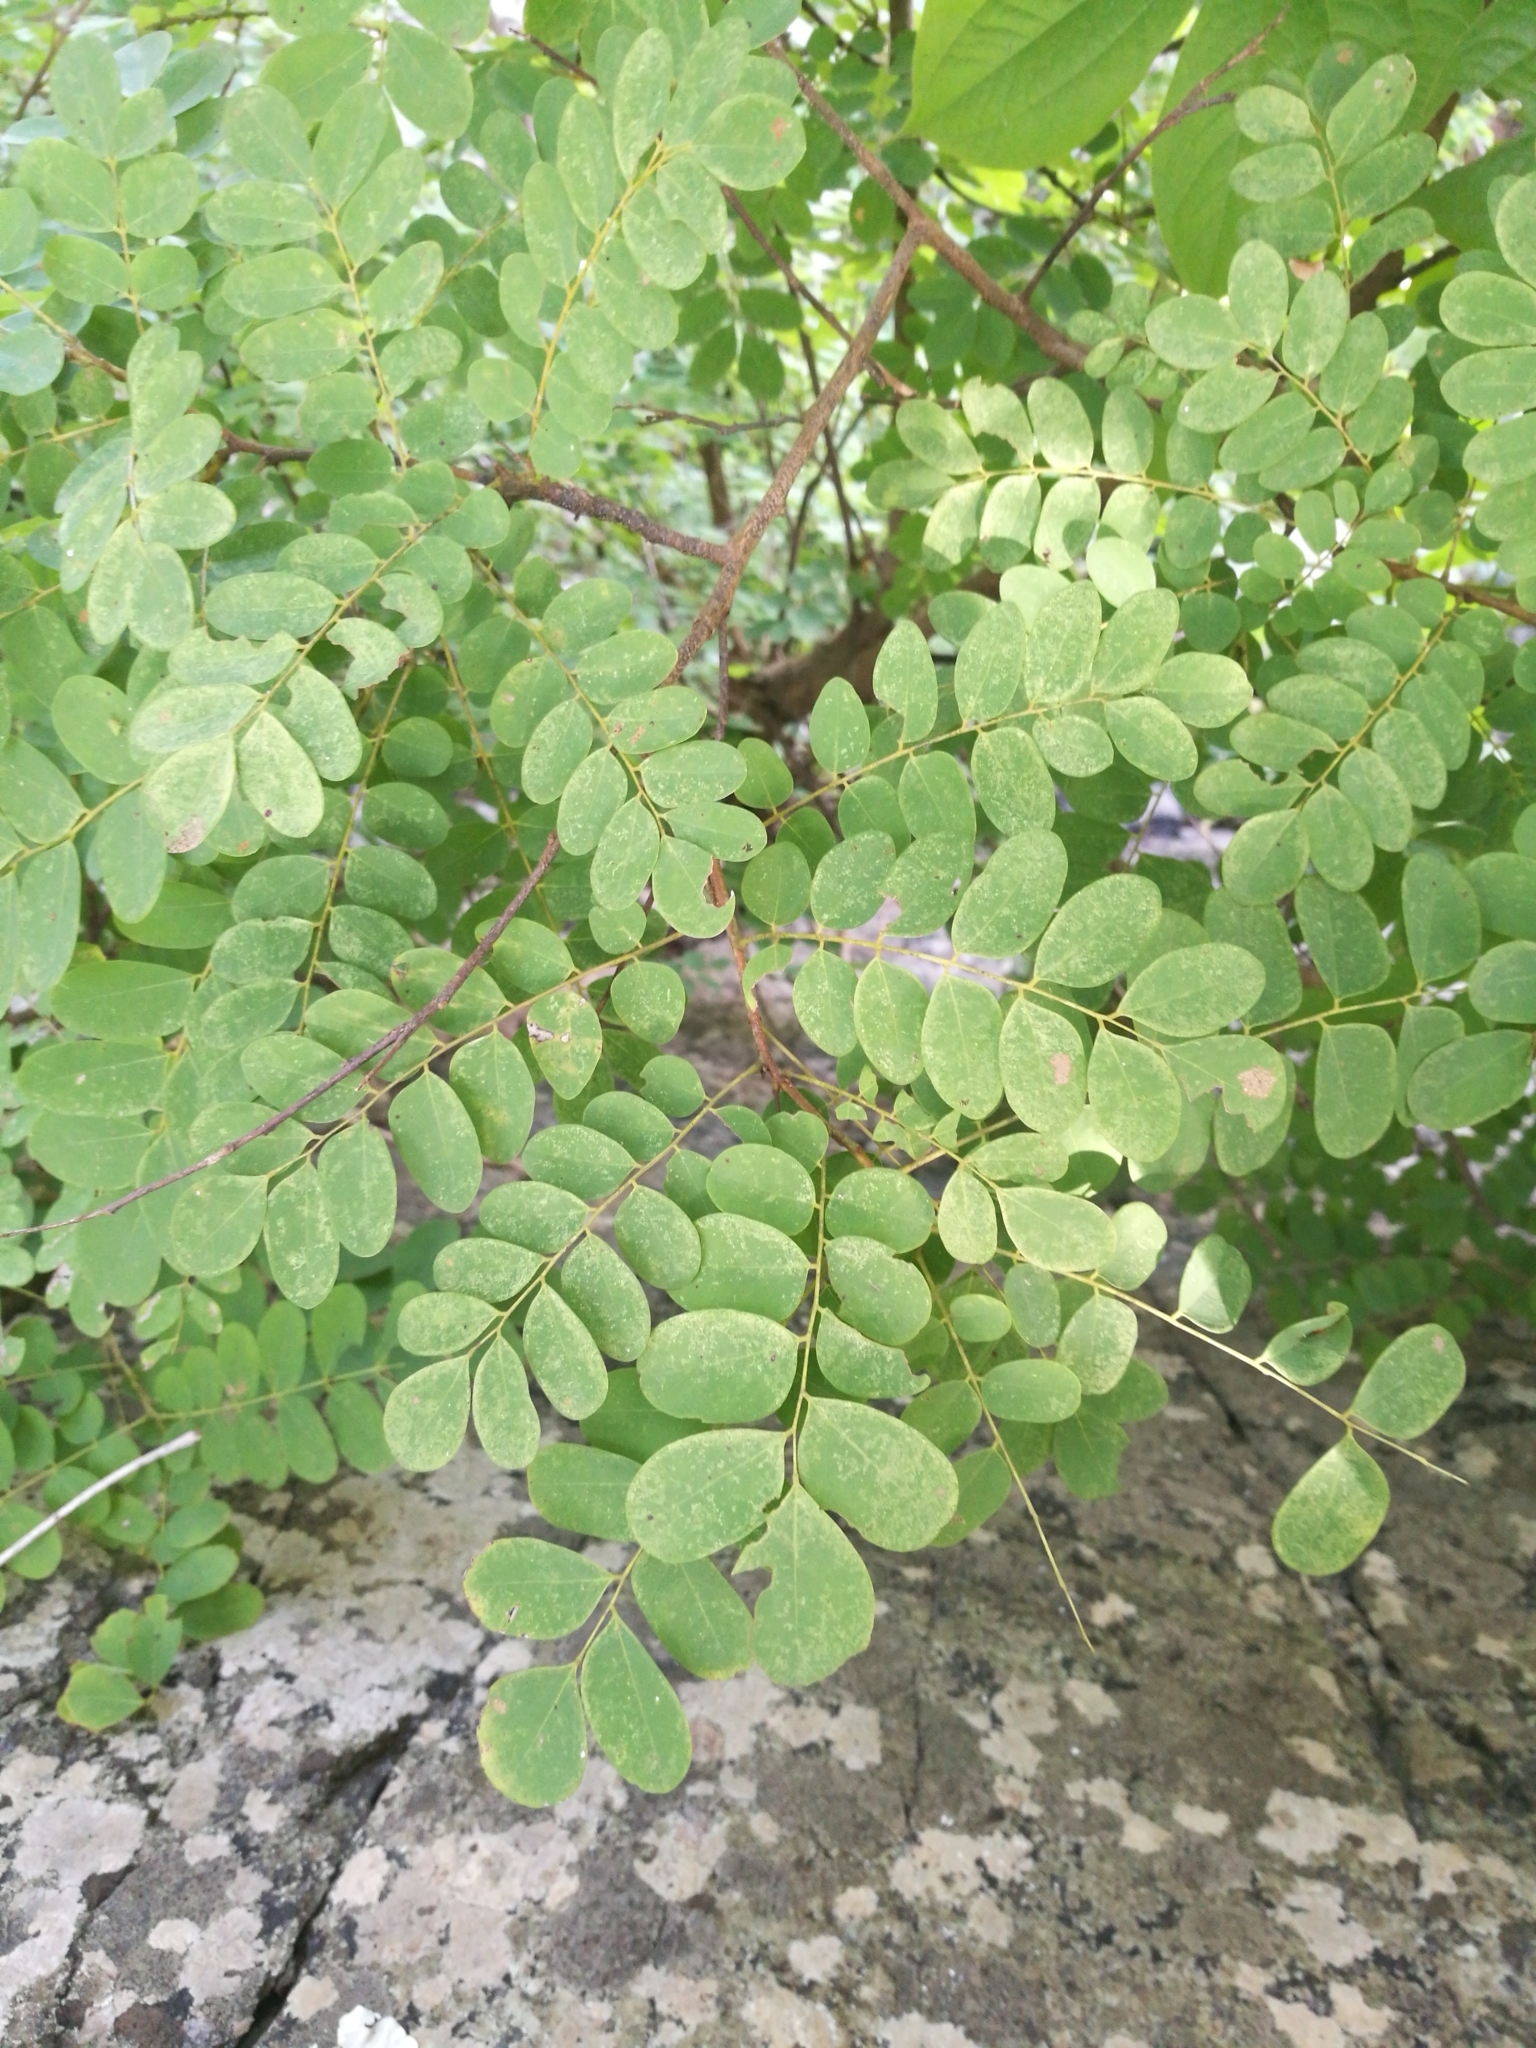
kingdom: Plantae
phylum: Tracheophyta
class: Magnoliopsida
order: Oxalidales
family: Connaraceae
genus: Rourea
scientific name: Rourea coccinea
